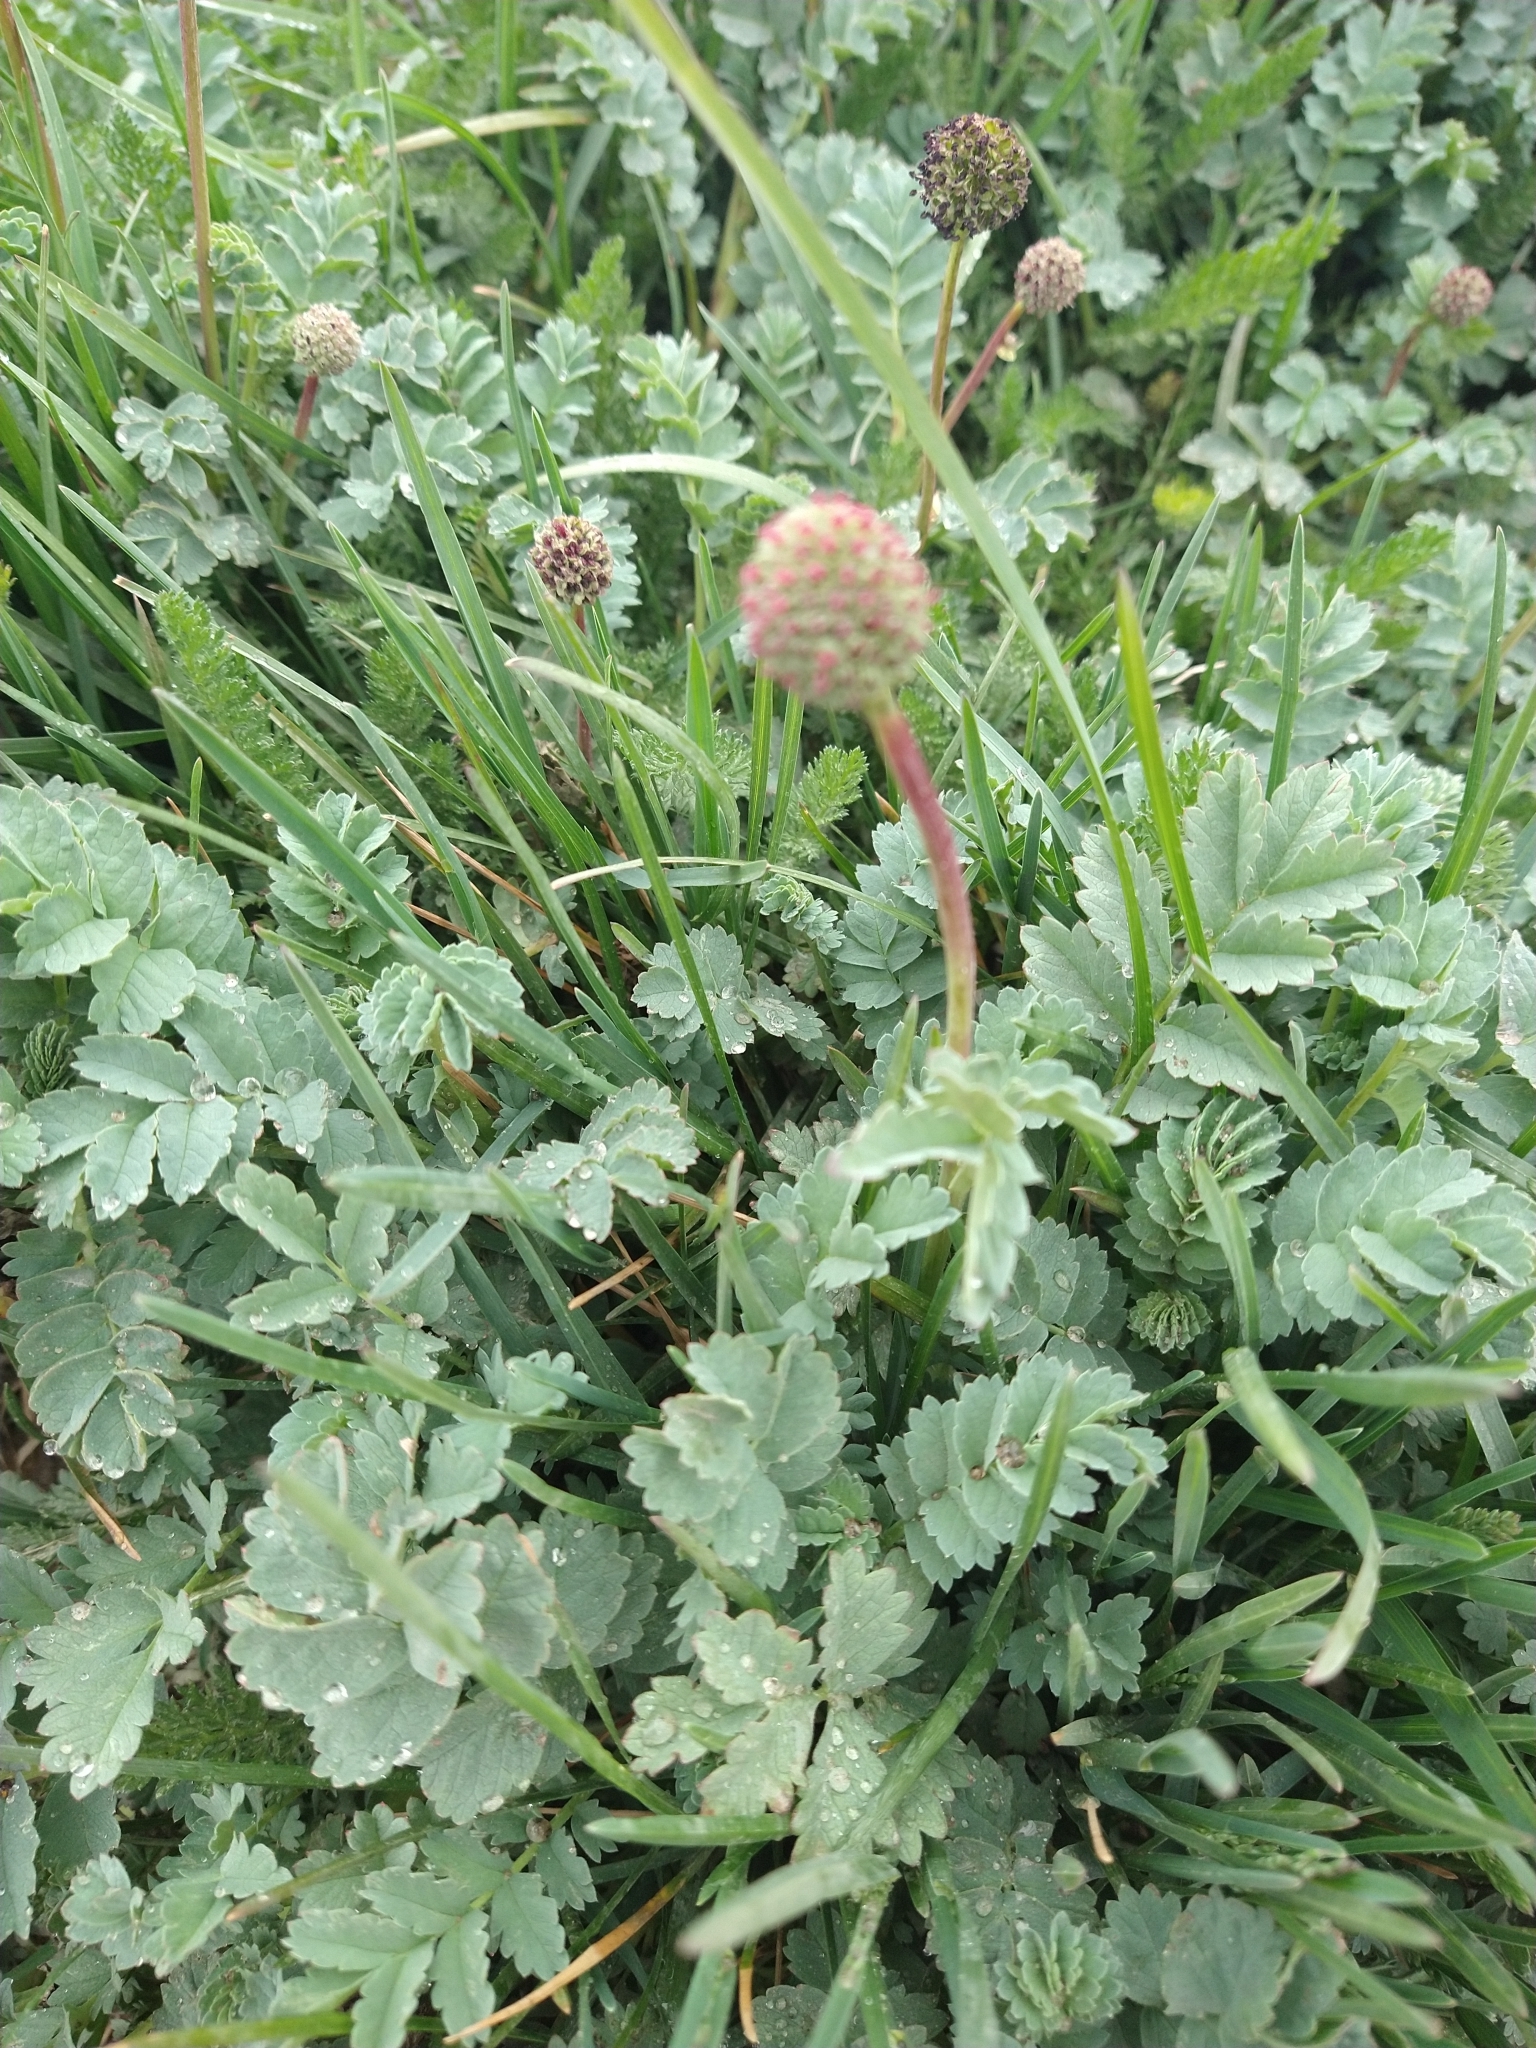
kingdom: Plantae
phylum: Tracheophyta
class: Magnoliopsida
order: Rosales
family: Rosaceae
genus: Acaena
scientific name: Acaena magellanica
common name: New zealand burr
